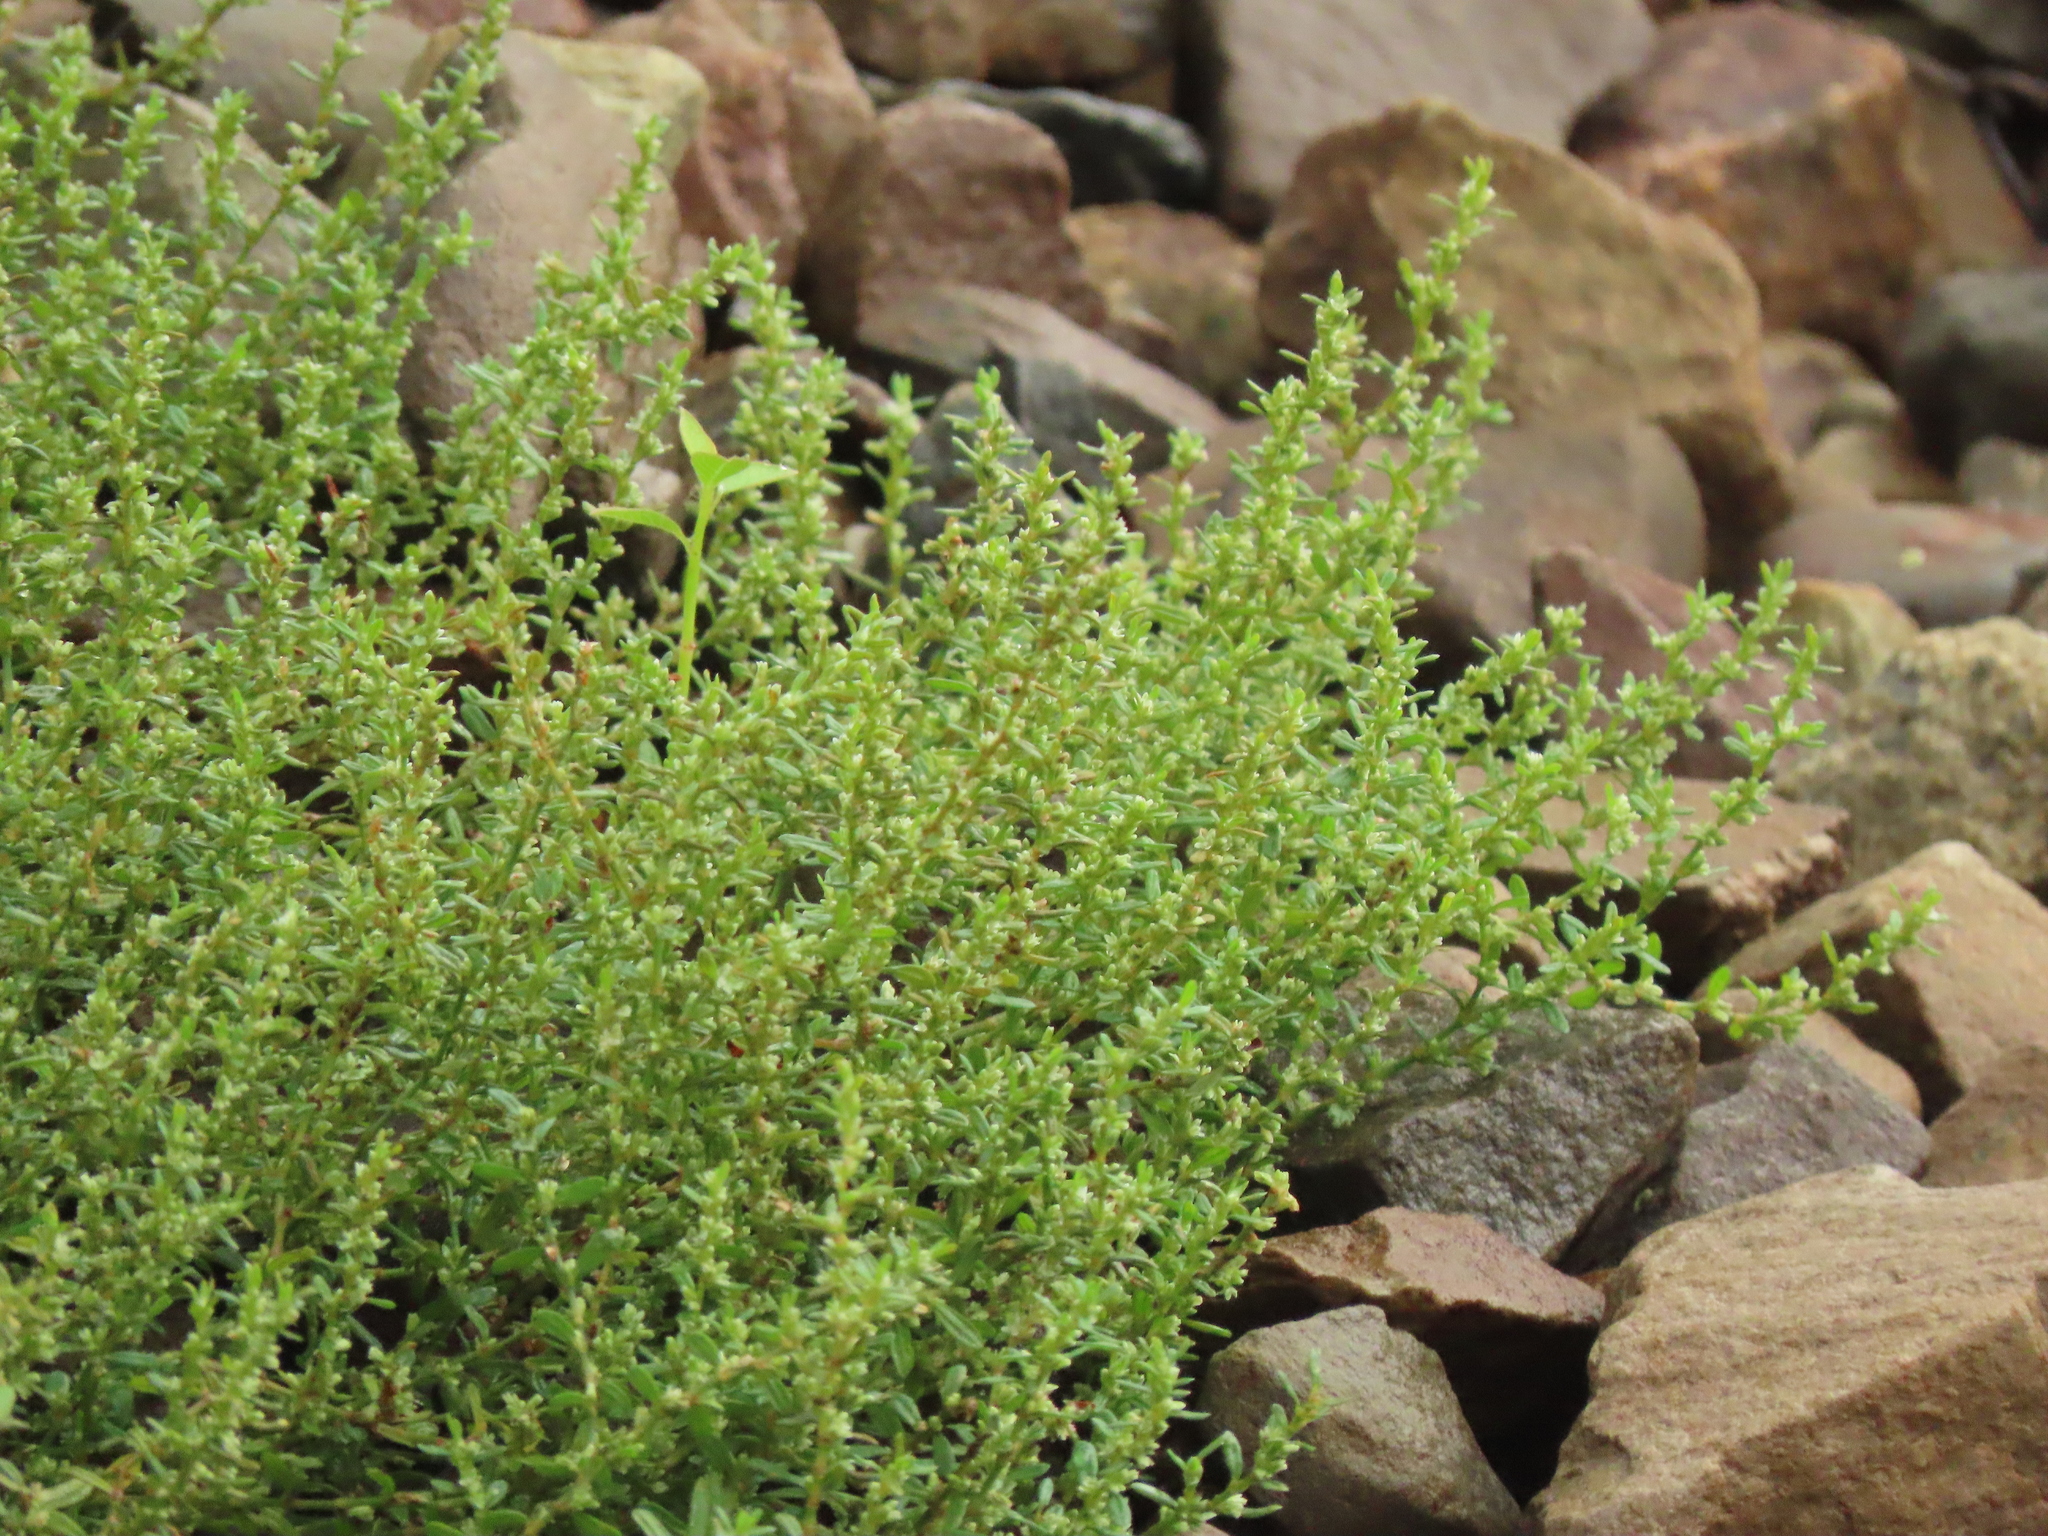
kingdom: Plantae
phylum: Tracheophyta
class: Magnoliopsida
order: Caryophyllales
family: Polygonaceae
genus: Polygonum
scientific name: Polygonum plebeium
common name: Common knotweed
